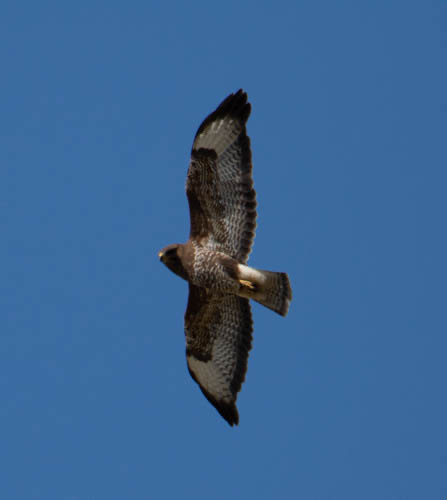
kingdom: Animalia
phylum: Chordata
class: Aves
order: Accipitriformes
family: Accipitridae
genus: Buteo
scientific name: Buteo buteo
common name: Common buzzard
